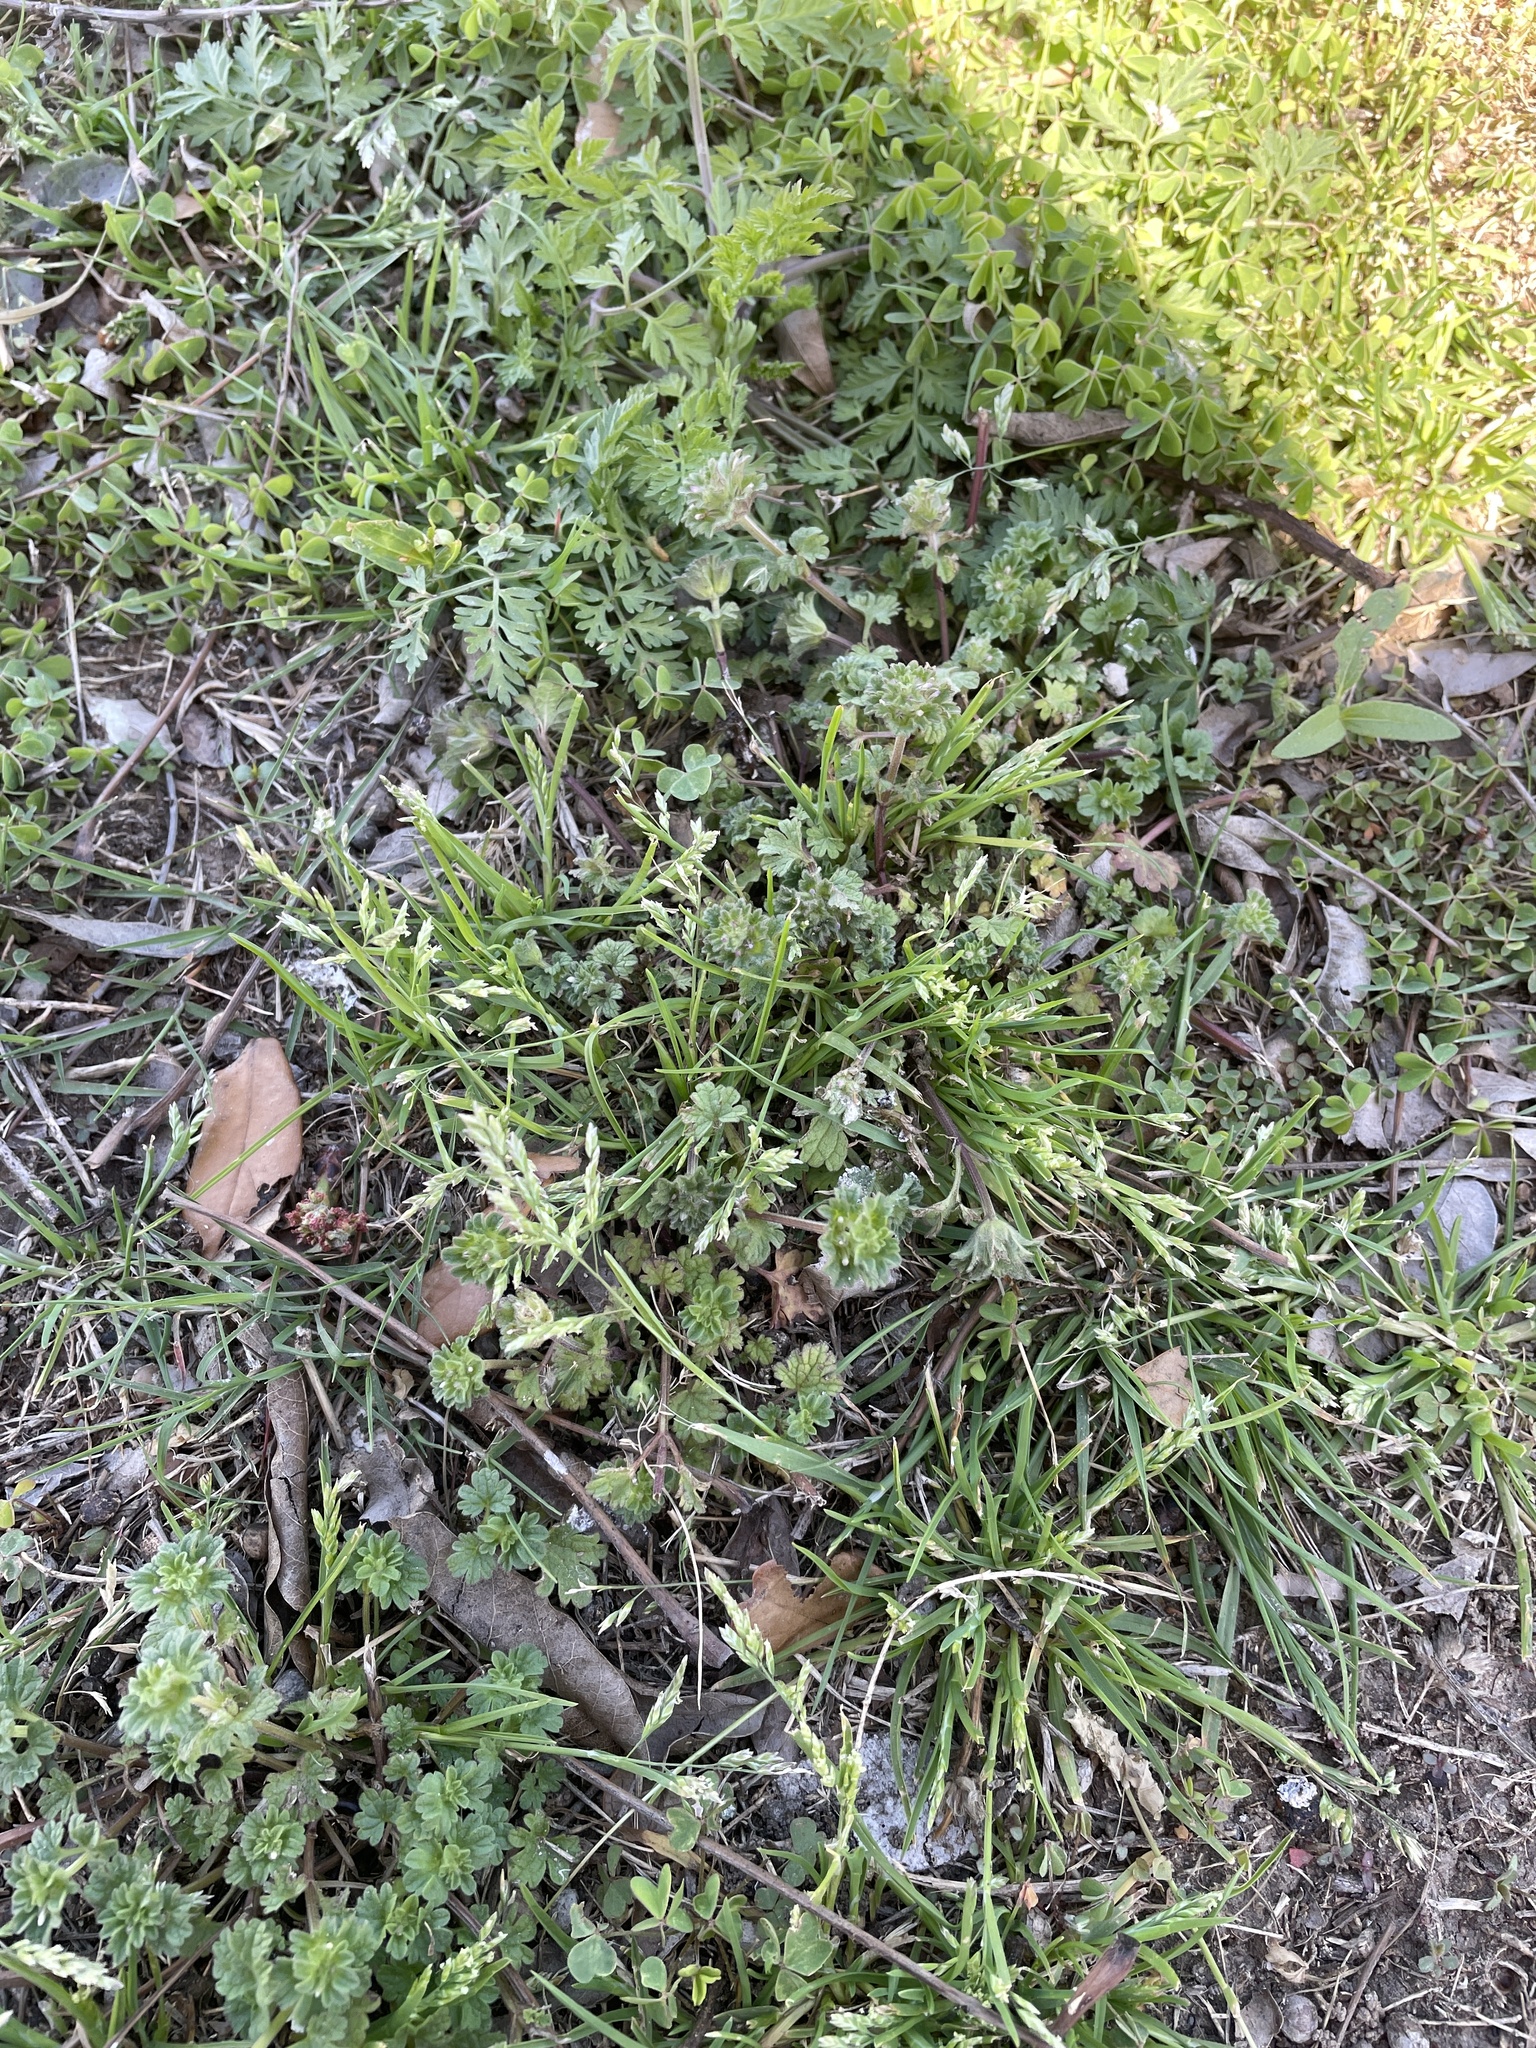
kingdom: Plantae
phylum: Tracheophyta
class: Liliopsida
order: Poales
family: Poaceae
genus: Poa
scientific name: Poa annua
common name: Annual bluegrass
